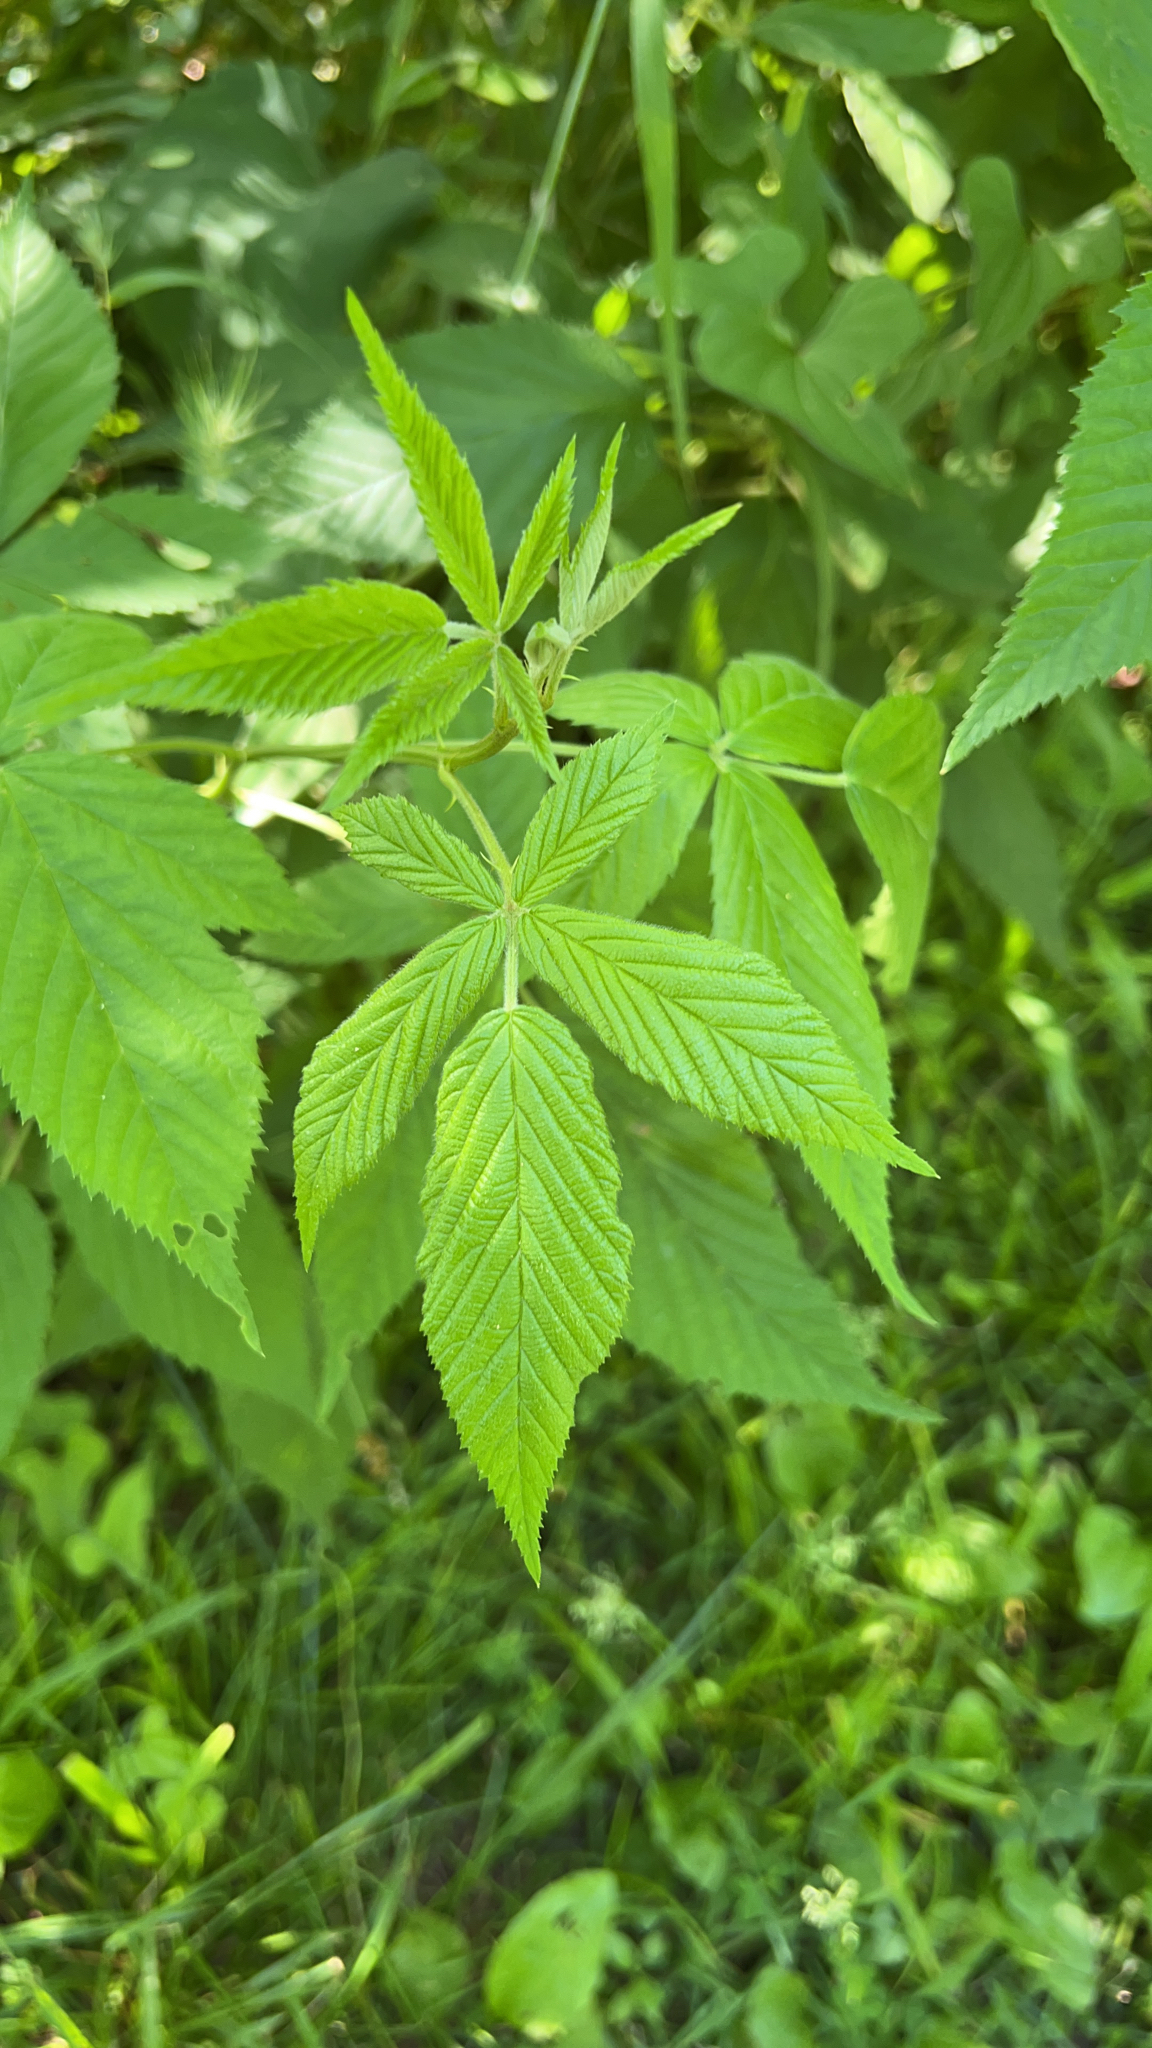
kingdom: Plantae
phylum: Tracheophyta
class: Magnoliopsida
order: Rosales
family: Rosaceae
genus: Rubus
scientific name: Rubus idaeus
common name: Raspberry
